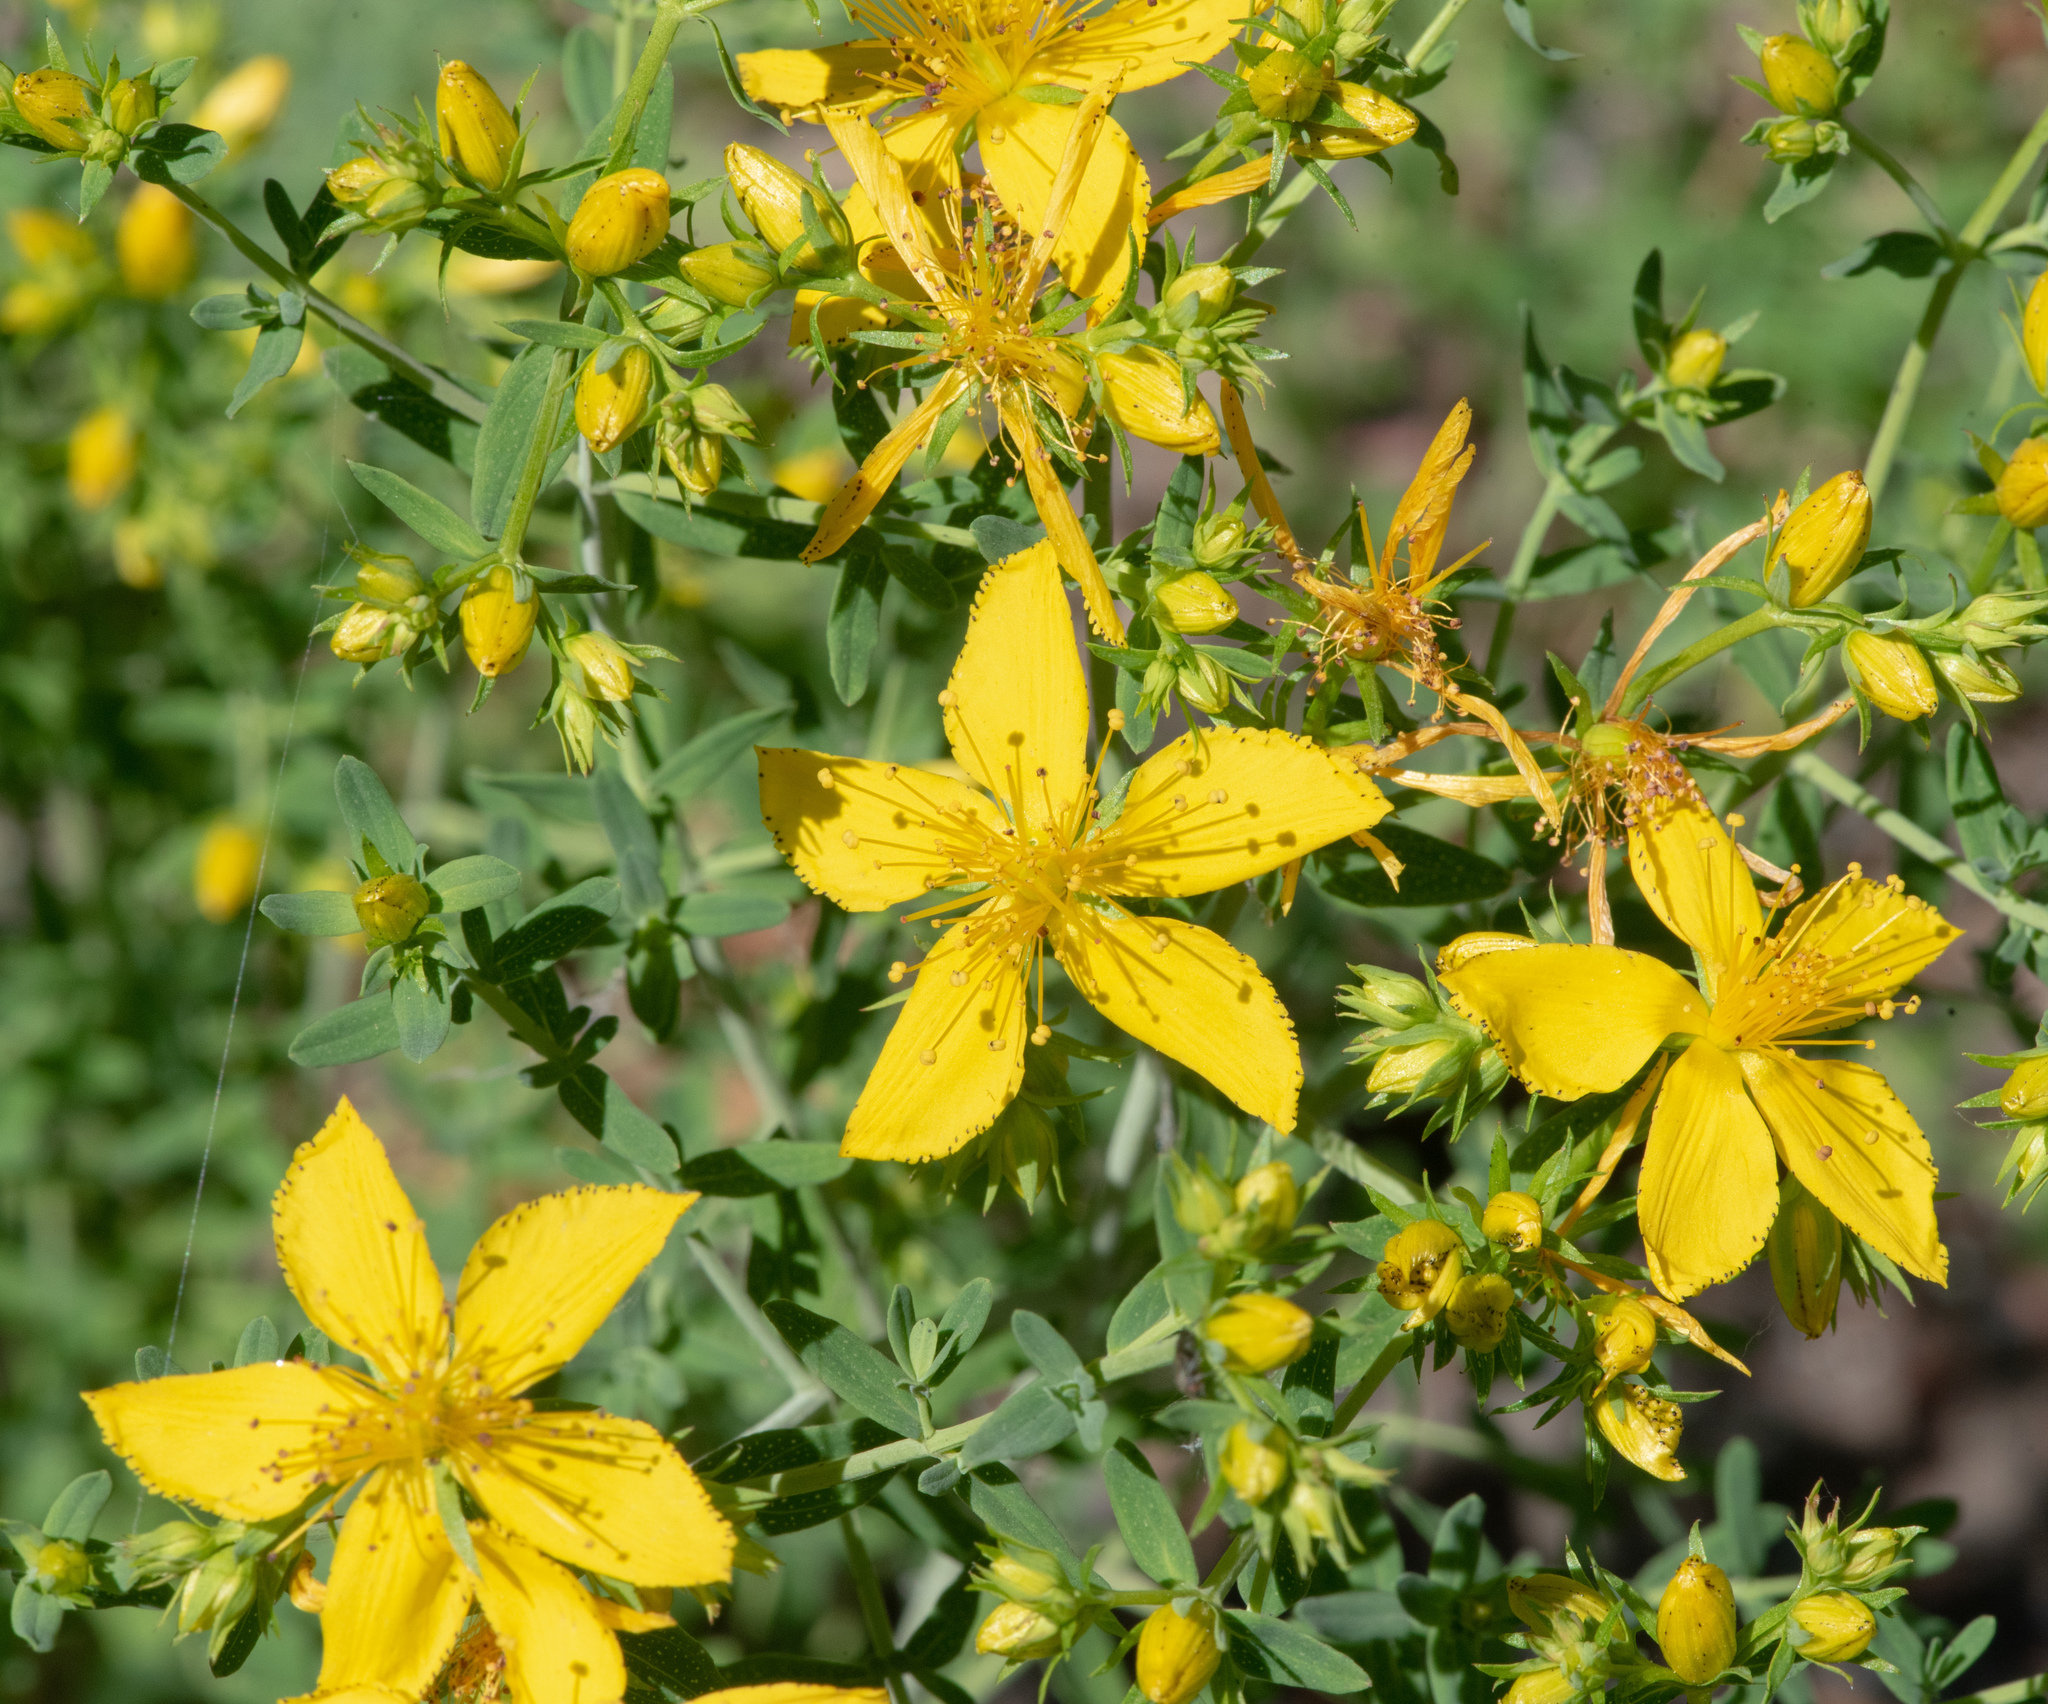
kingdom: Plantae
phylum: Tracheophyta
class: Magnoliopsida
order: Malpighiales
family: Hypericaceae
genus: Hypericum
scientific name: Hypericum perforatum
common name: Common st. johnswort
